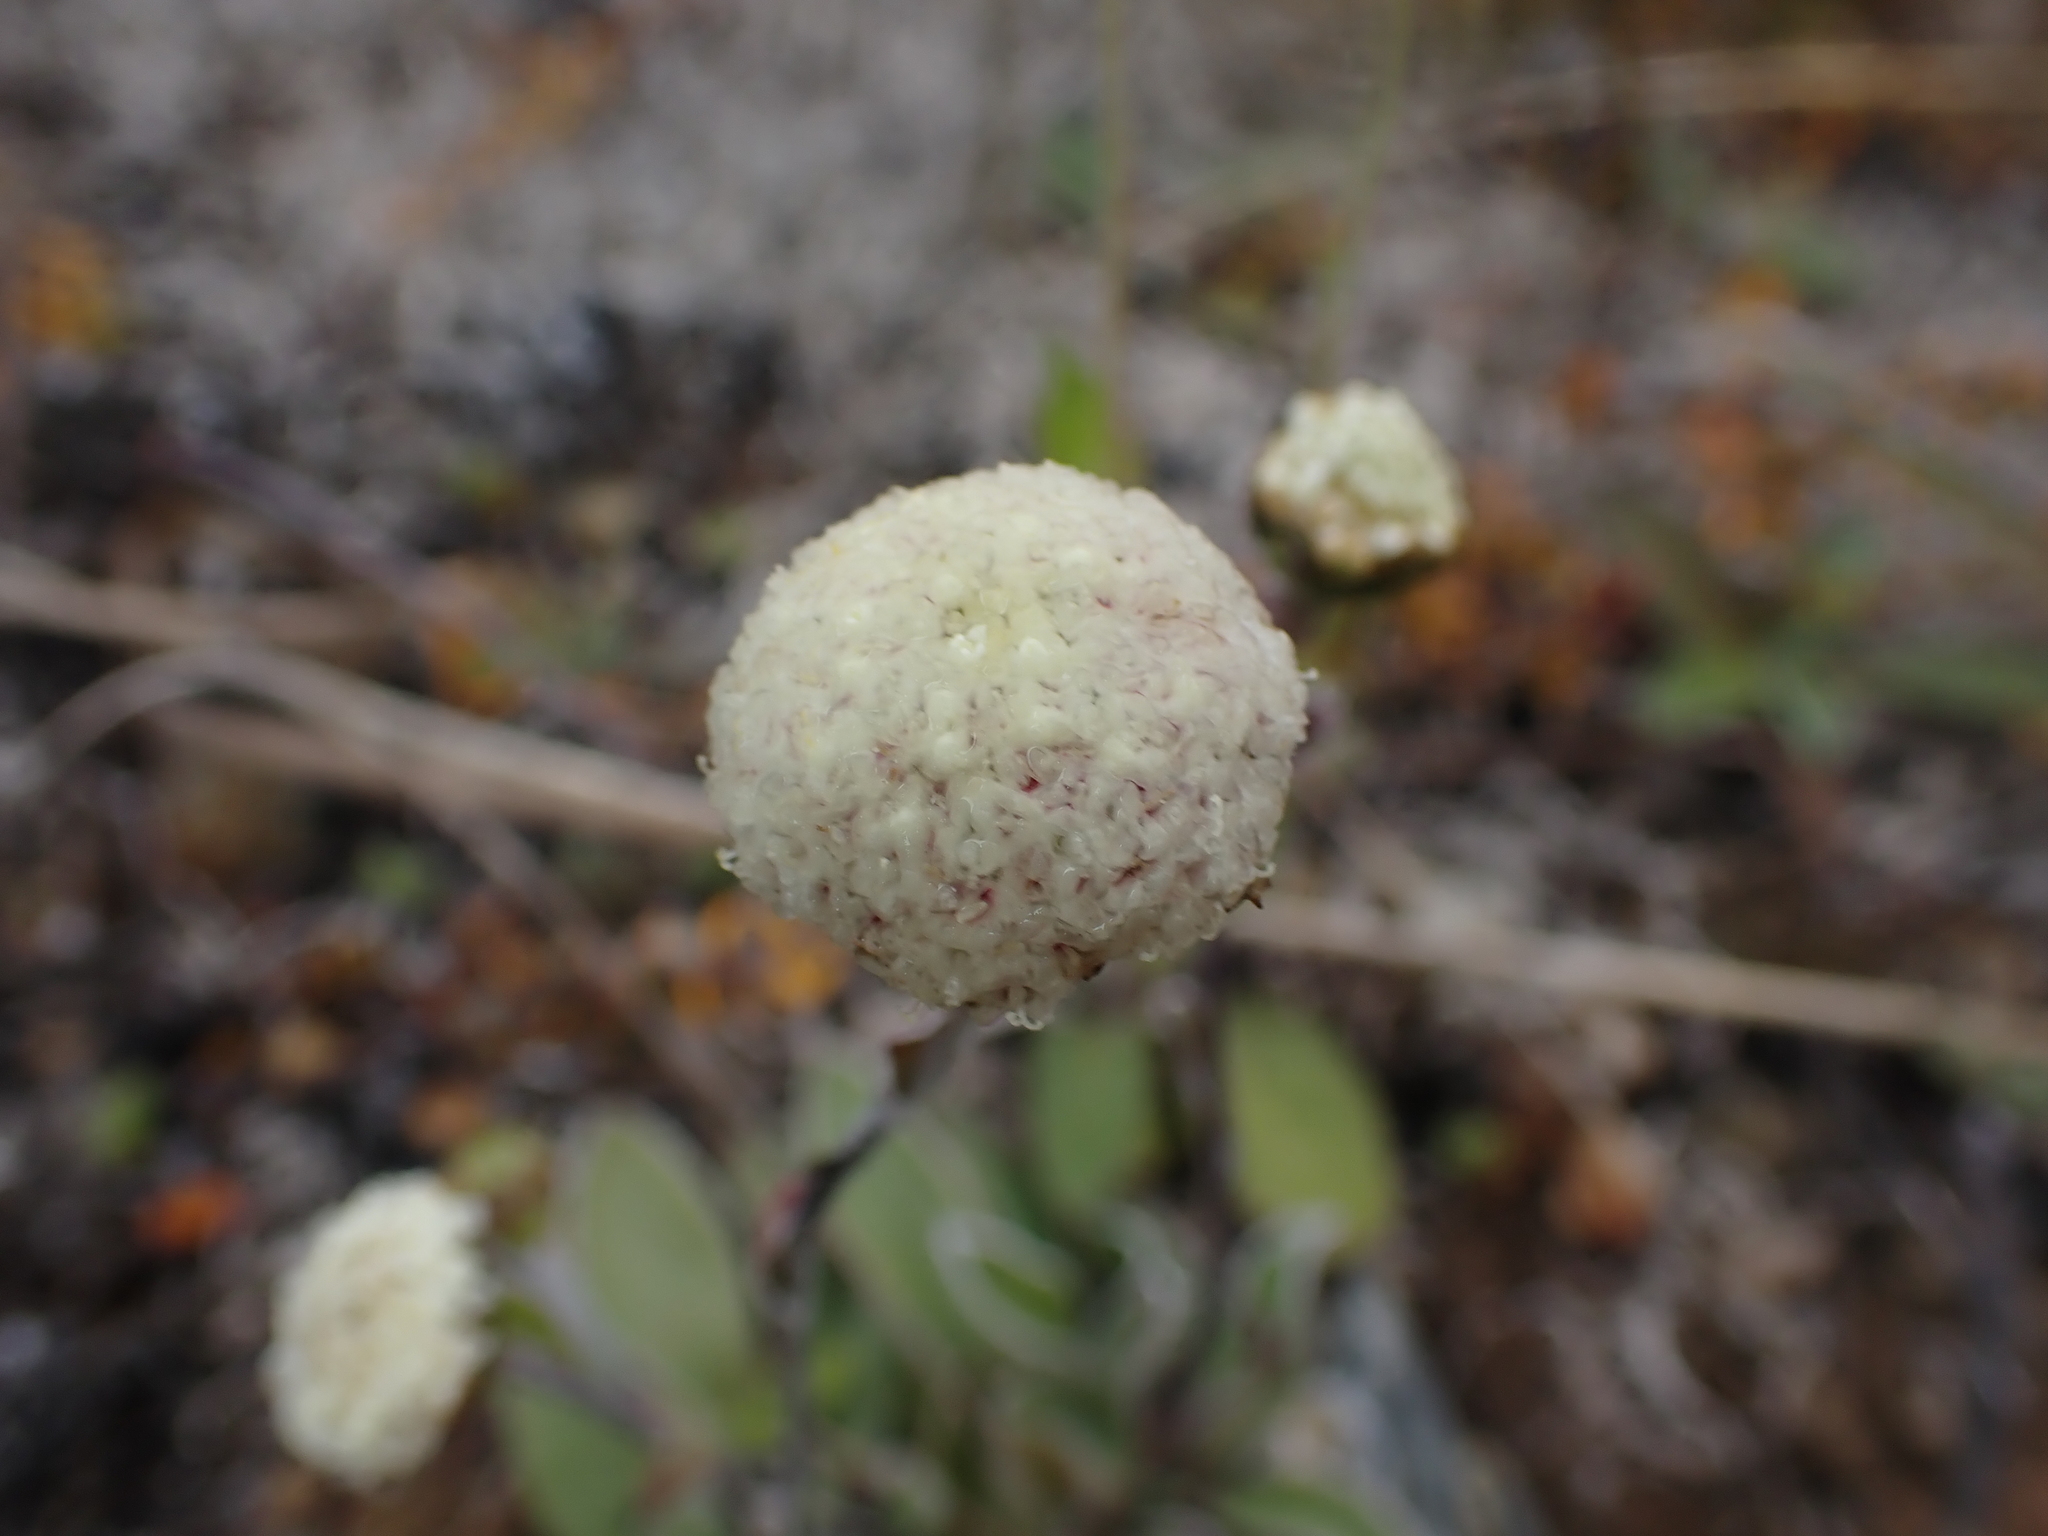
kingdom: Plantae
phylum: Tracheophyta
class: Magnoliopsida
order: Asterales
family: Asteraceae
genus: Craspedia
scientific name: Craspedia uniflora
